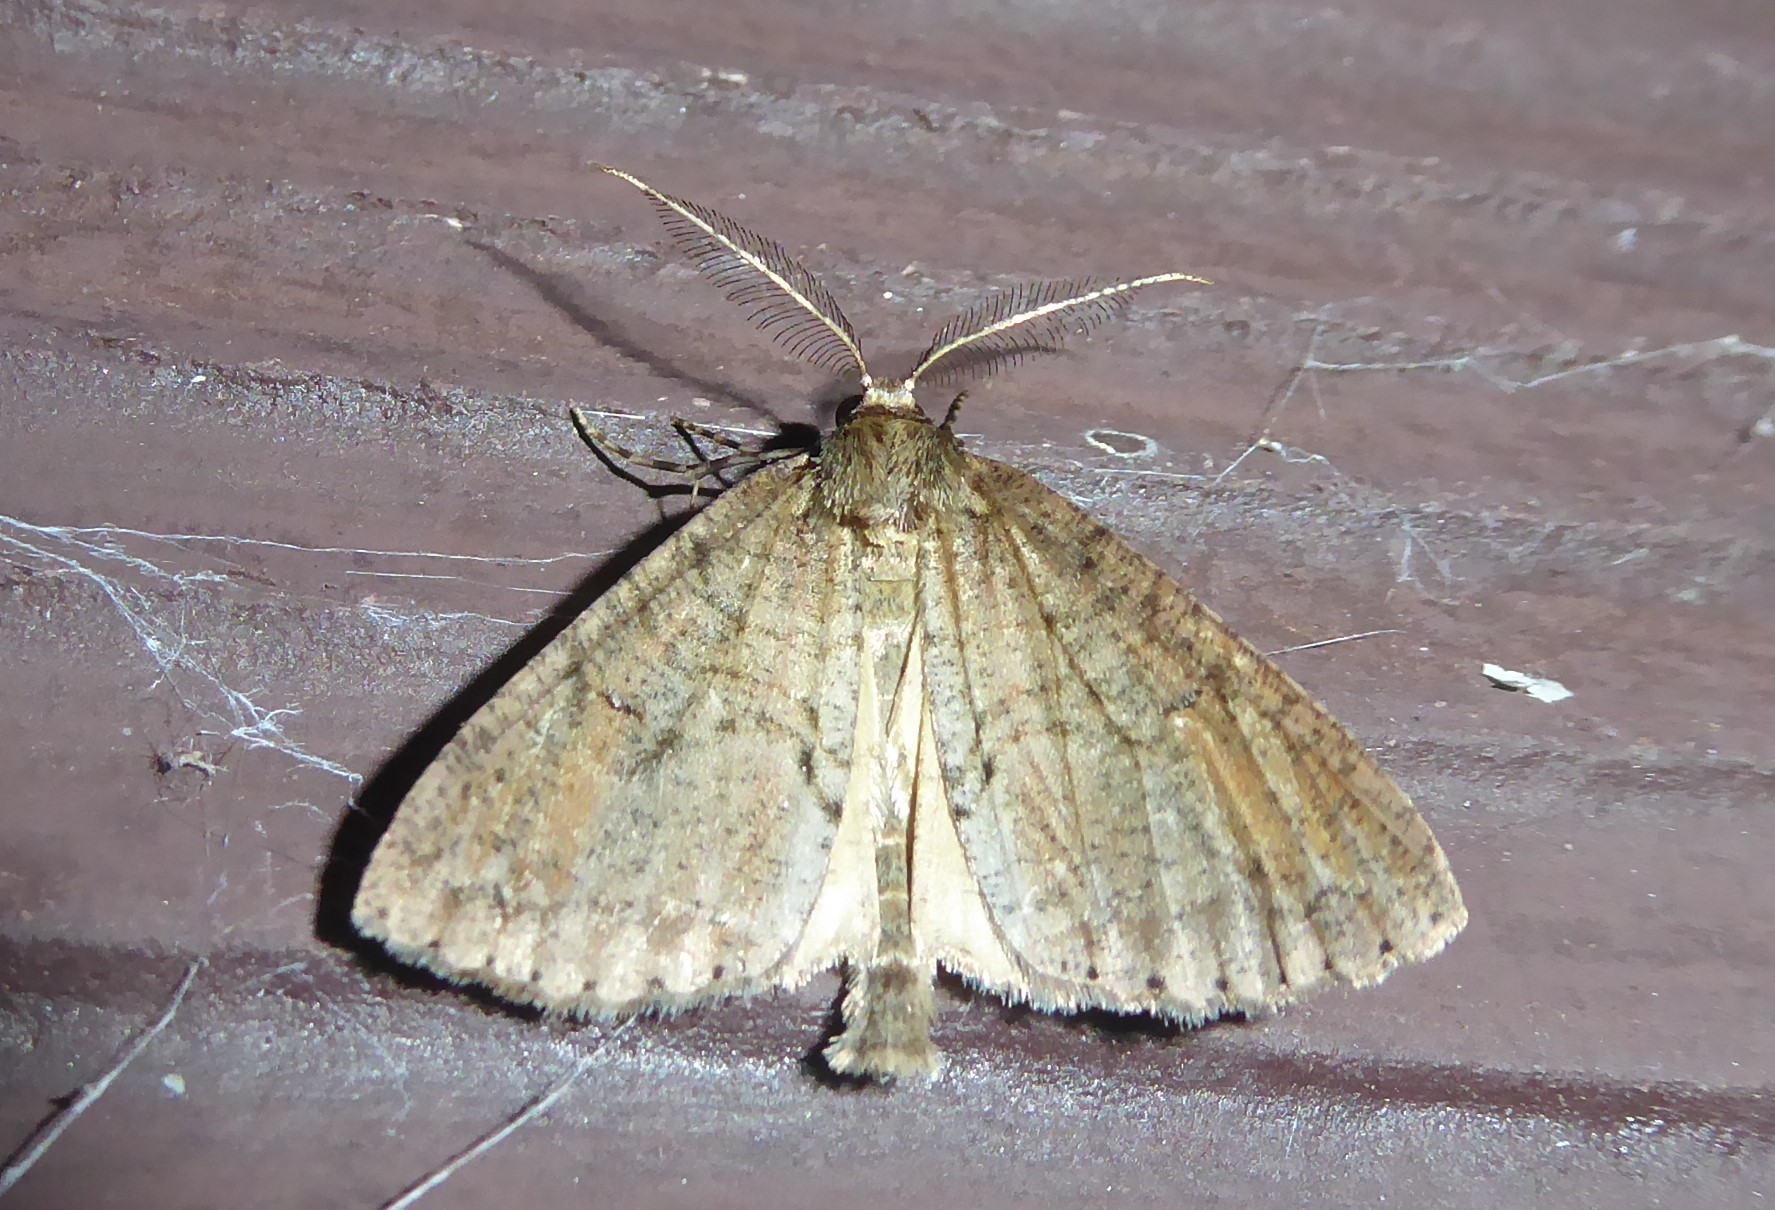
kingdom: Animalia
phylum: Arthropoda
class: Insecta
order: Lepidoptera
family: Geometridae
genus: Pseudocoremia
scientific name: Pseudocoremia suavis
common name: Common forest looper
